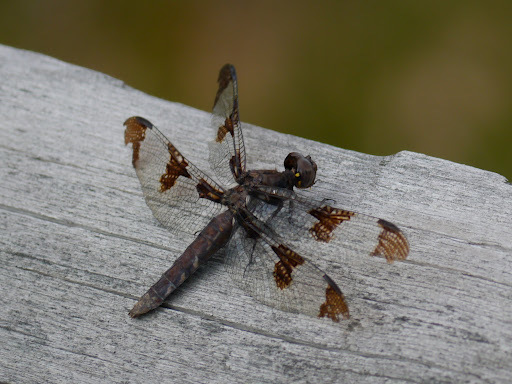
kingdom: Animalia
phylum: Arthropoda
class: Insecta
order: Odonata
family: Libellulidae
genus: Plathemis
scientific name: Plathemis lydia
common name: Common whitetail
